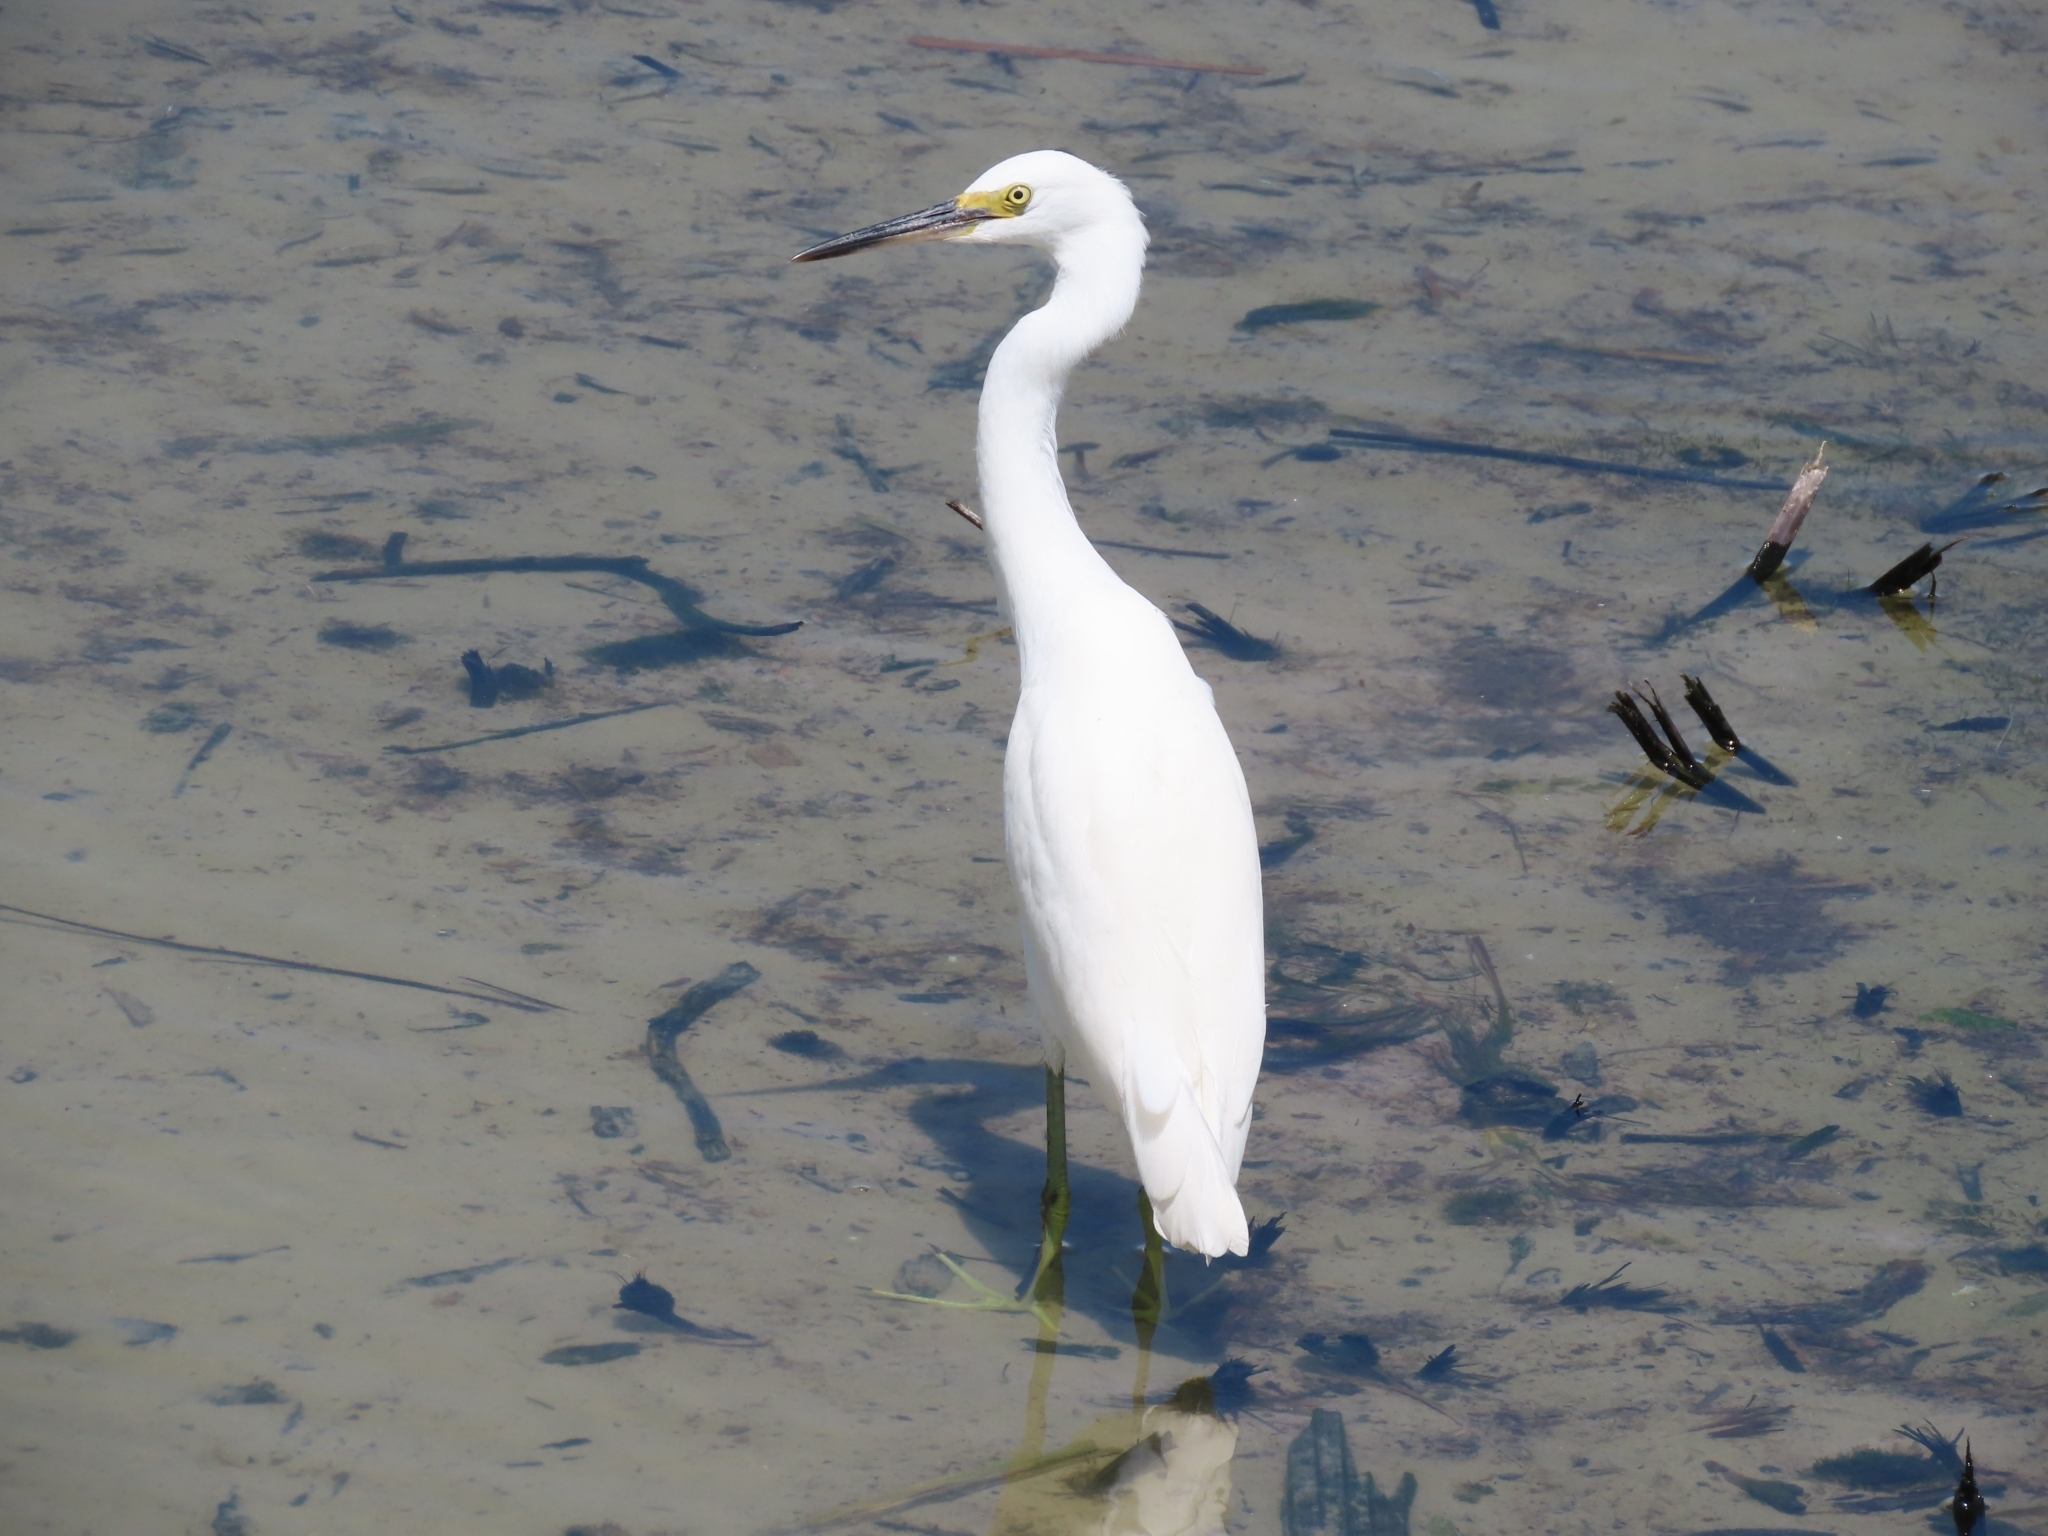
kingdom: Animalia
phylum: Chordata
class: Aves
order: Pelecaniformes
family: Ardeidae
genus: Egretta
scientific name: Egretta thula
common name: Snowy egret
